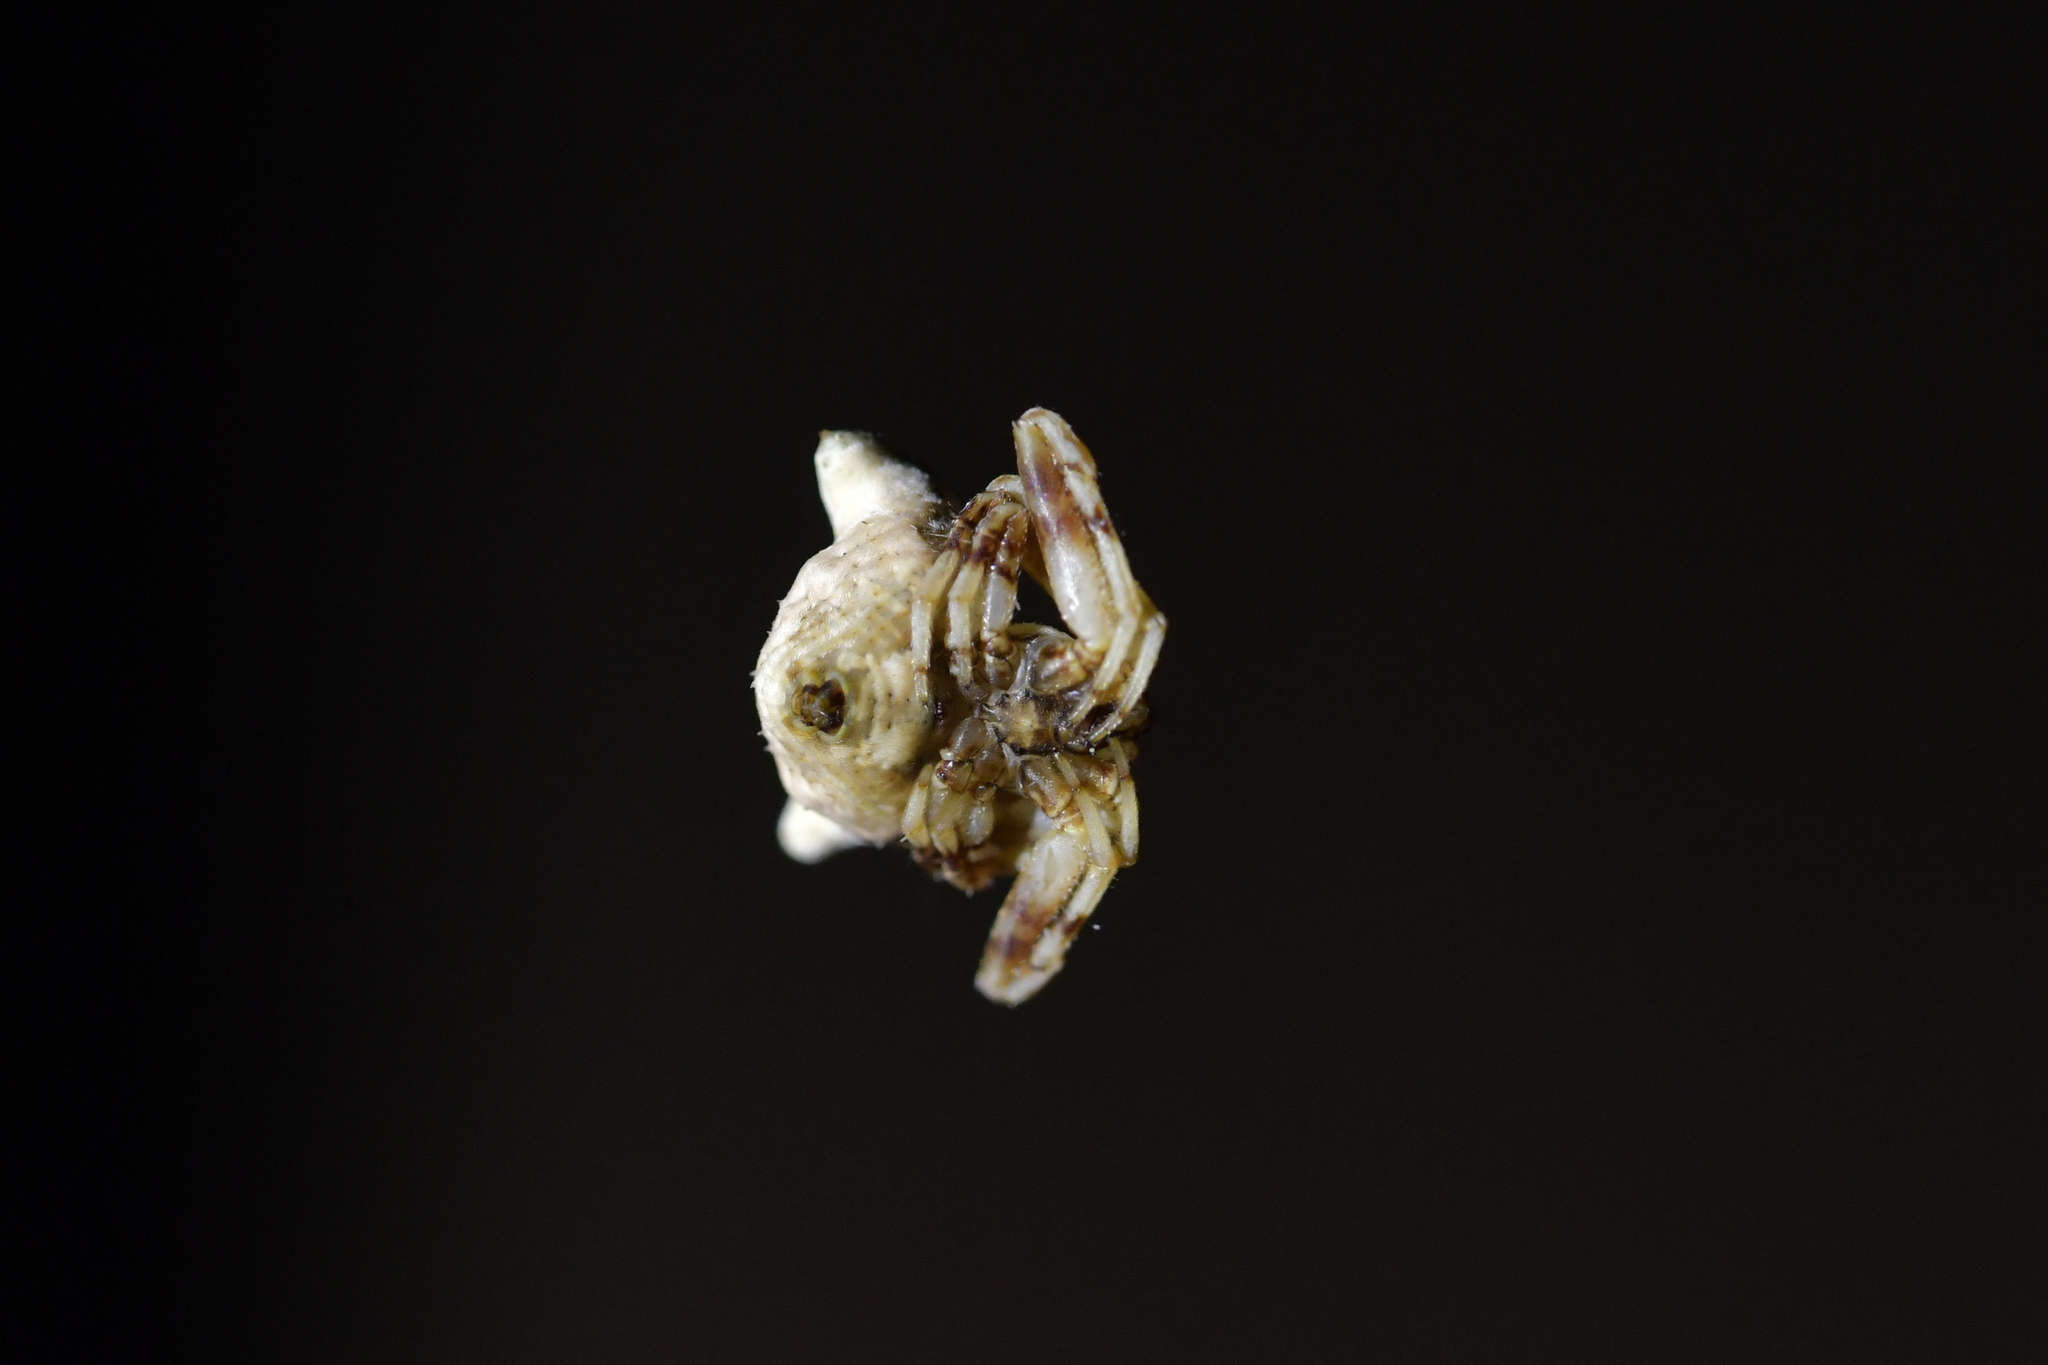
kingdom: Animalia
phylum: Arthropoda
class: Arachnida
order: Araneae
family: Araneidae
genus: Celaenia
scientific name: Celaenia olivacea
